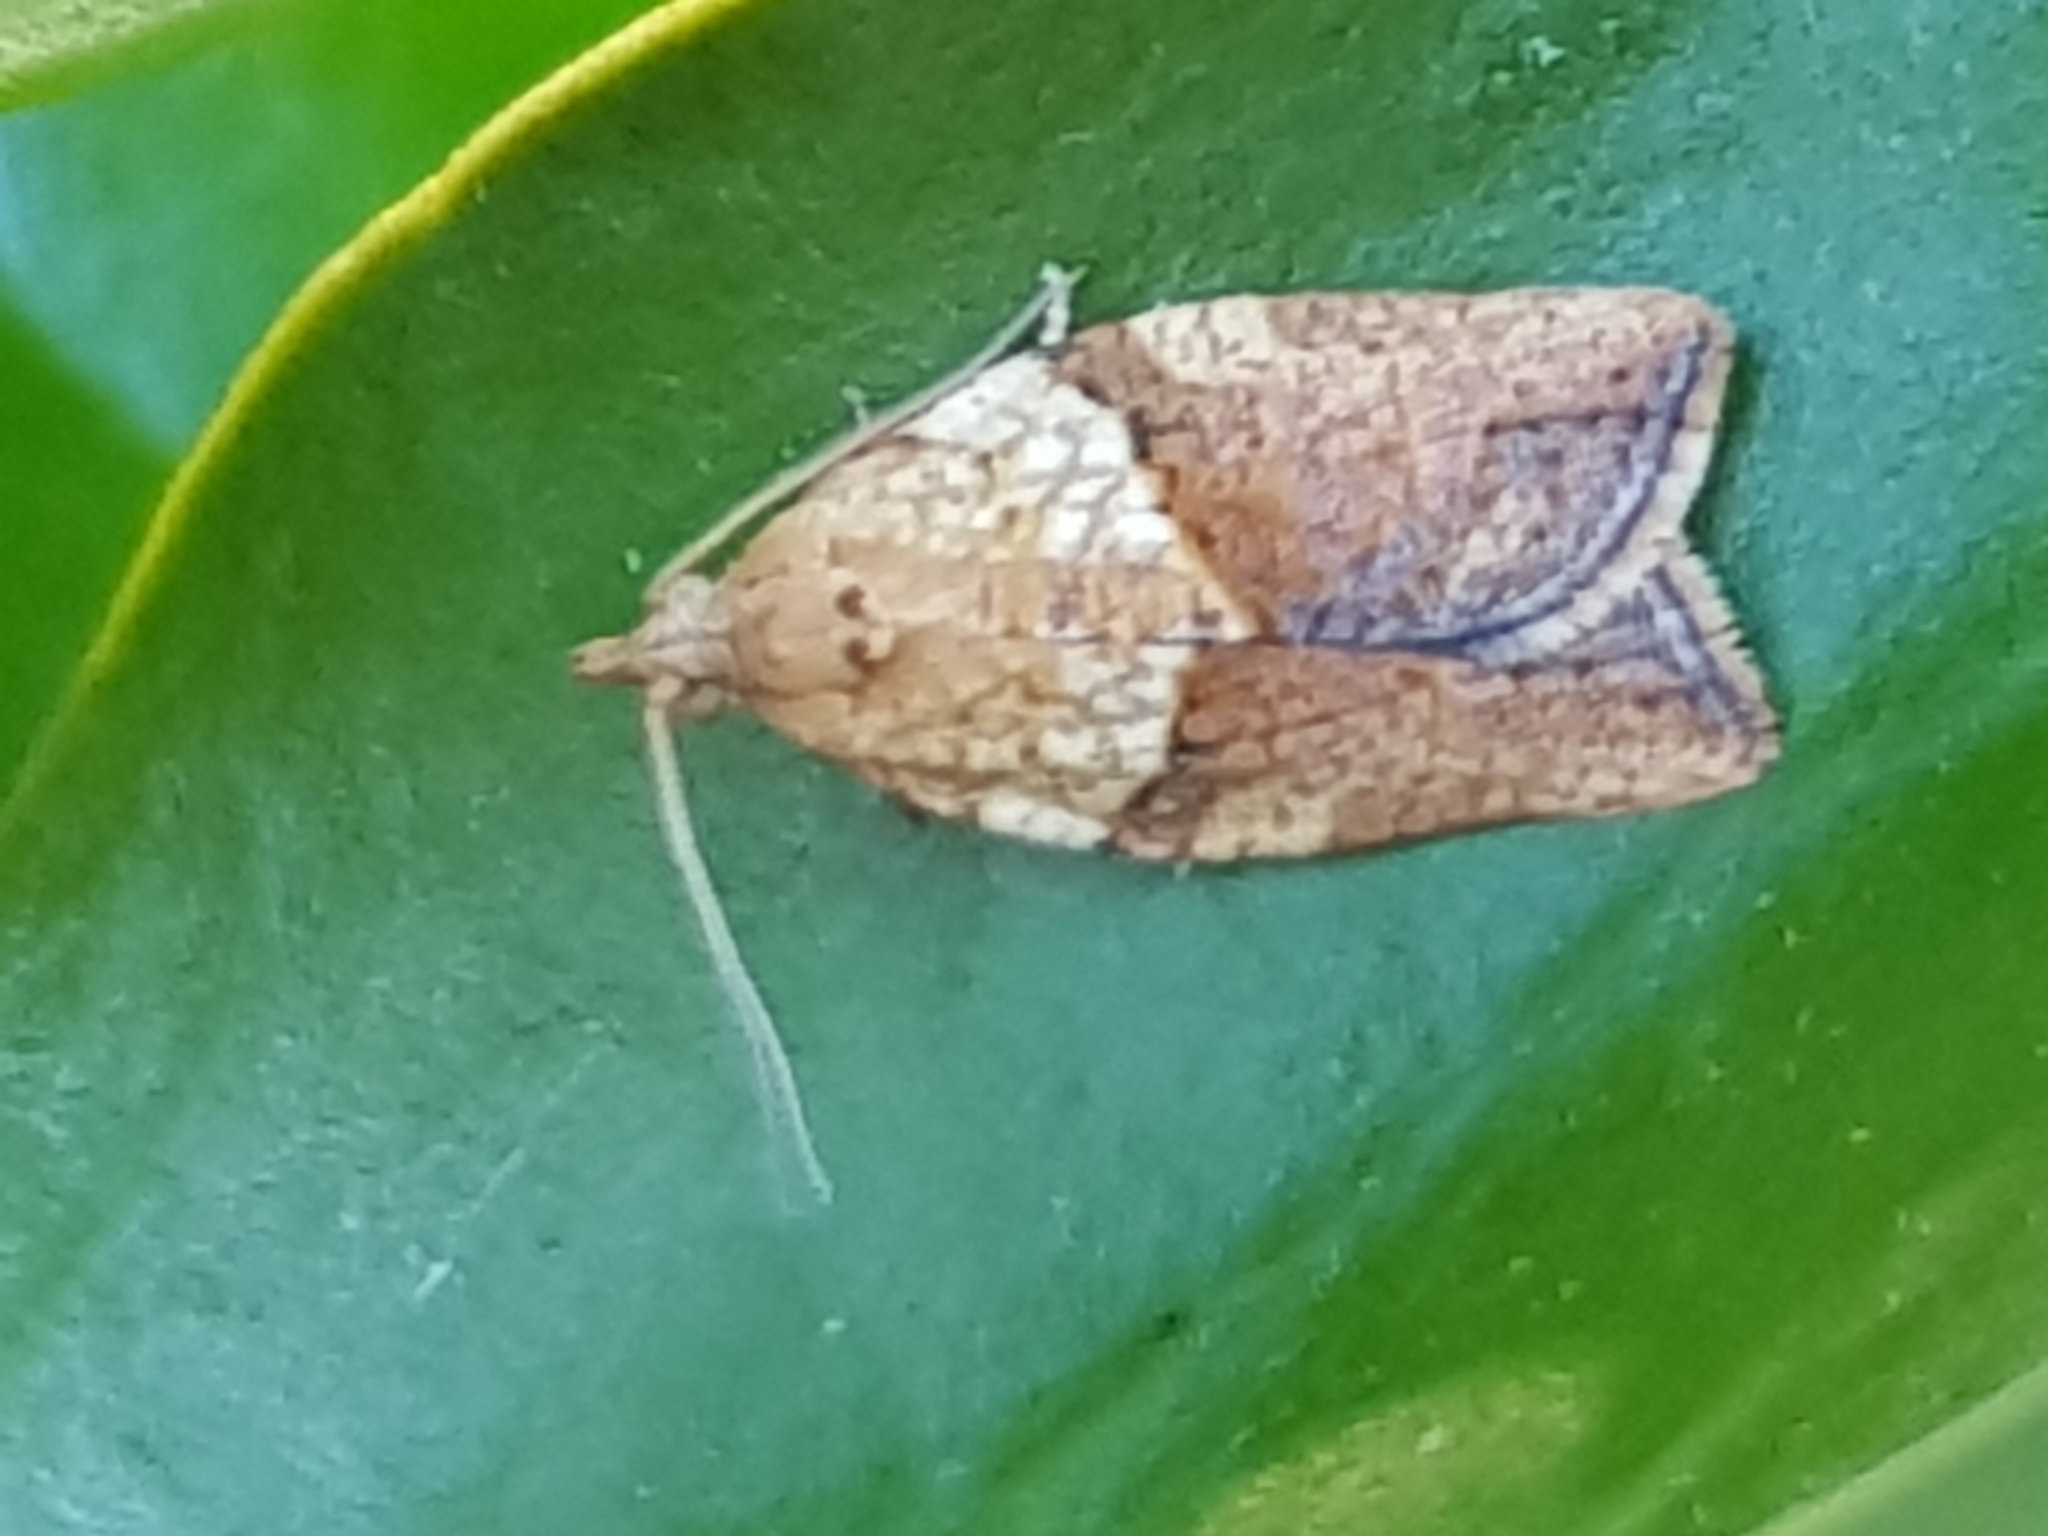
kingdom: Animalia
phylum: Arthropoda
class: Insecta
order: Lepidoptera
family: Tortricidae
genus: Epiphyas
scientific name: Epiphyas postvittana
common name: Light brown apple moth
